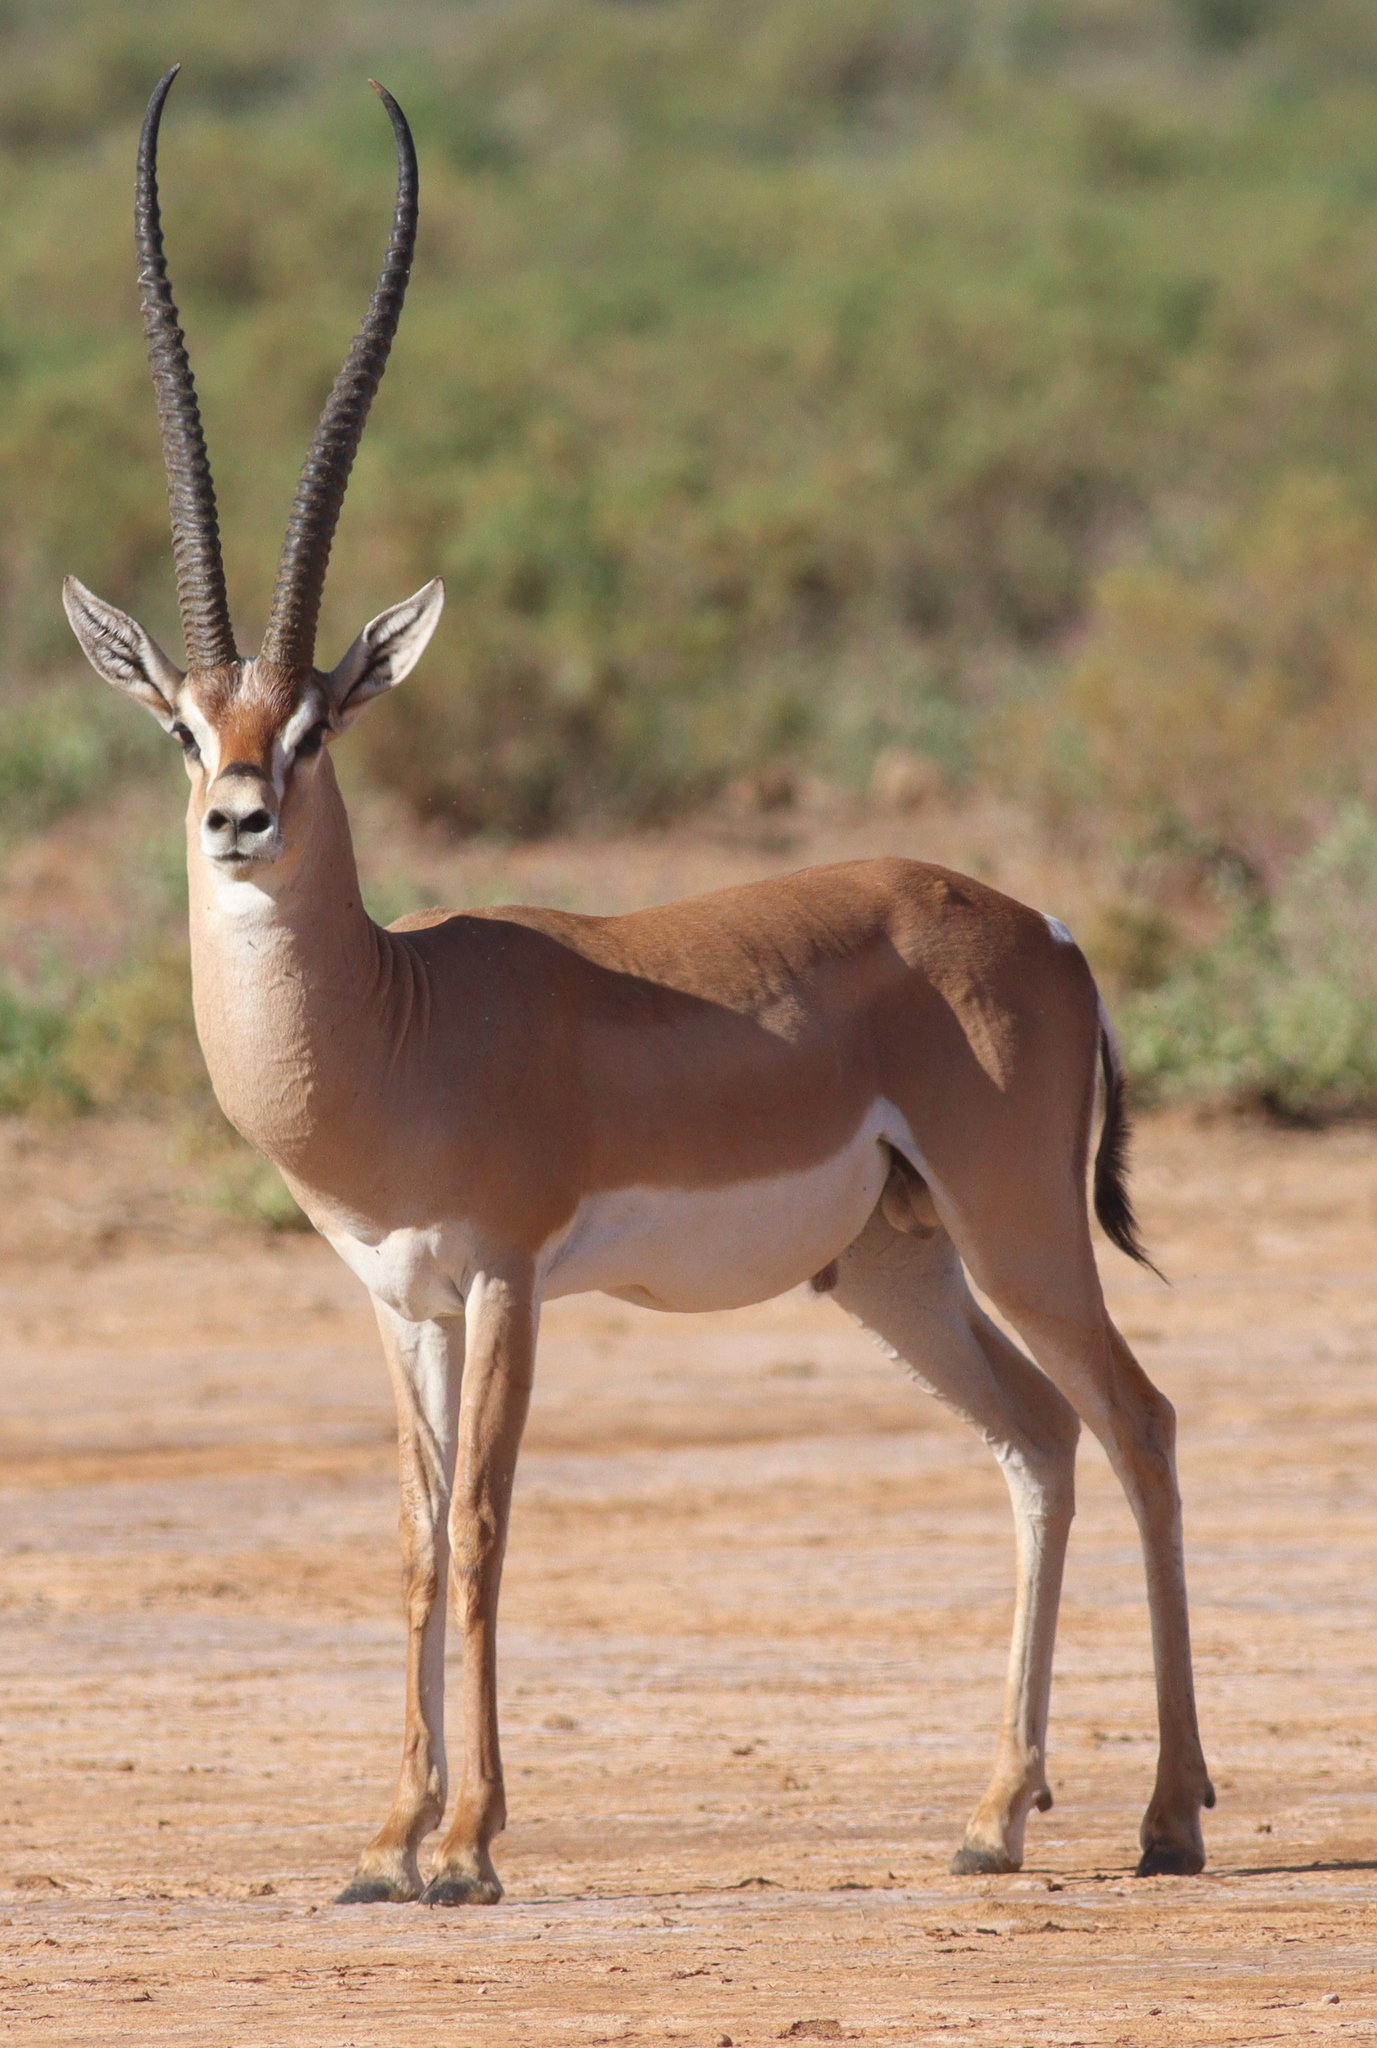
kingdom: Animalia
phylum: Chordata
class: Mammalia
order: Artiodactyla
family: Bovidae
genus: Nanger
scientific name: Nanger granti
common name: Grant's gazelle
